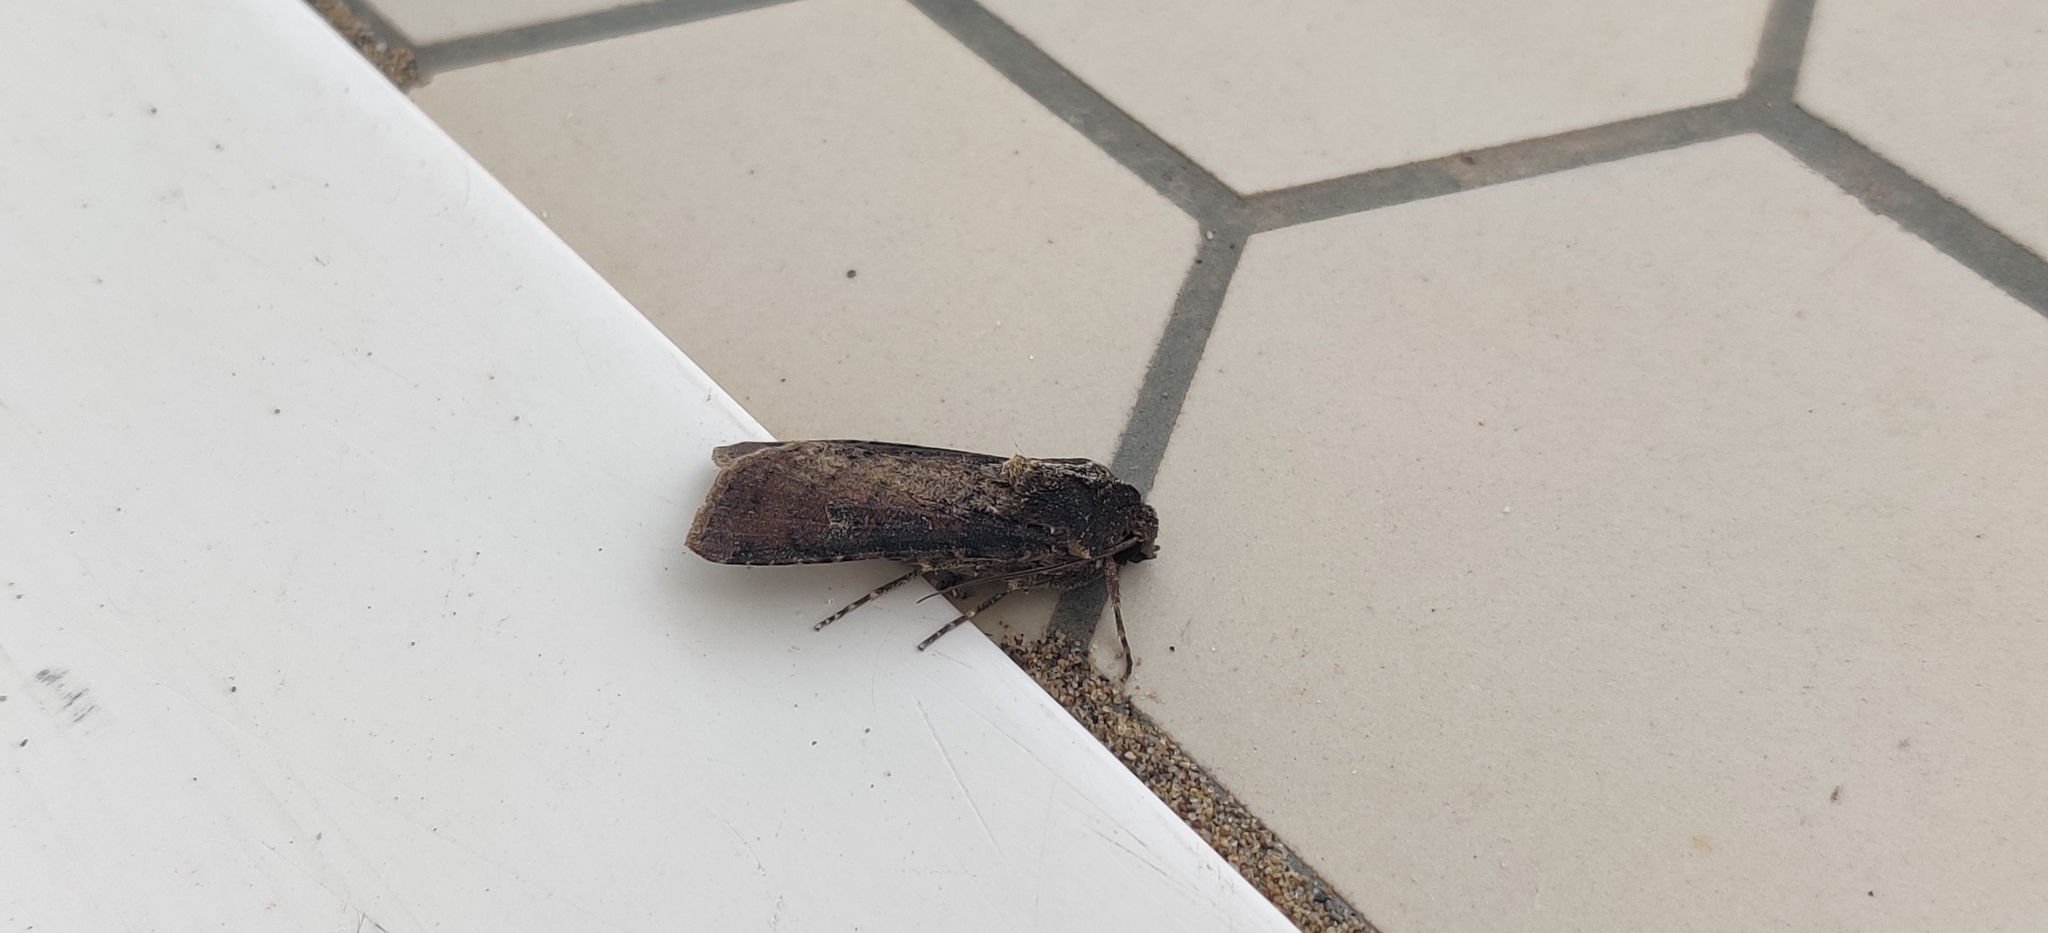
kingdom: Animalia
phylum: Arthropoda
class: Insecta
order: Lepidoptera
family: Noctuidae
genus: Peridroma
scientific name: Peridroma saucia
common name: Pearly underwing
